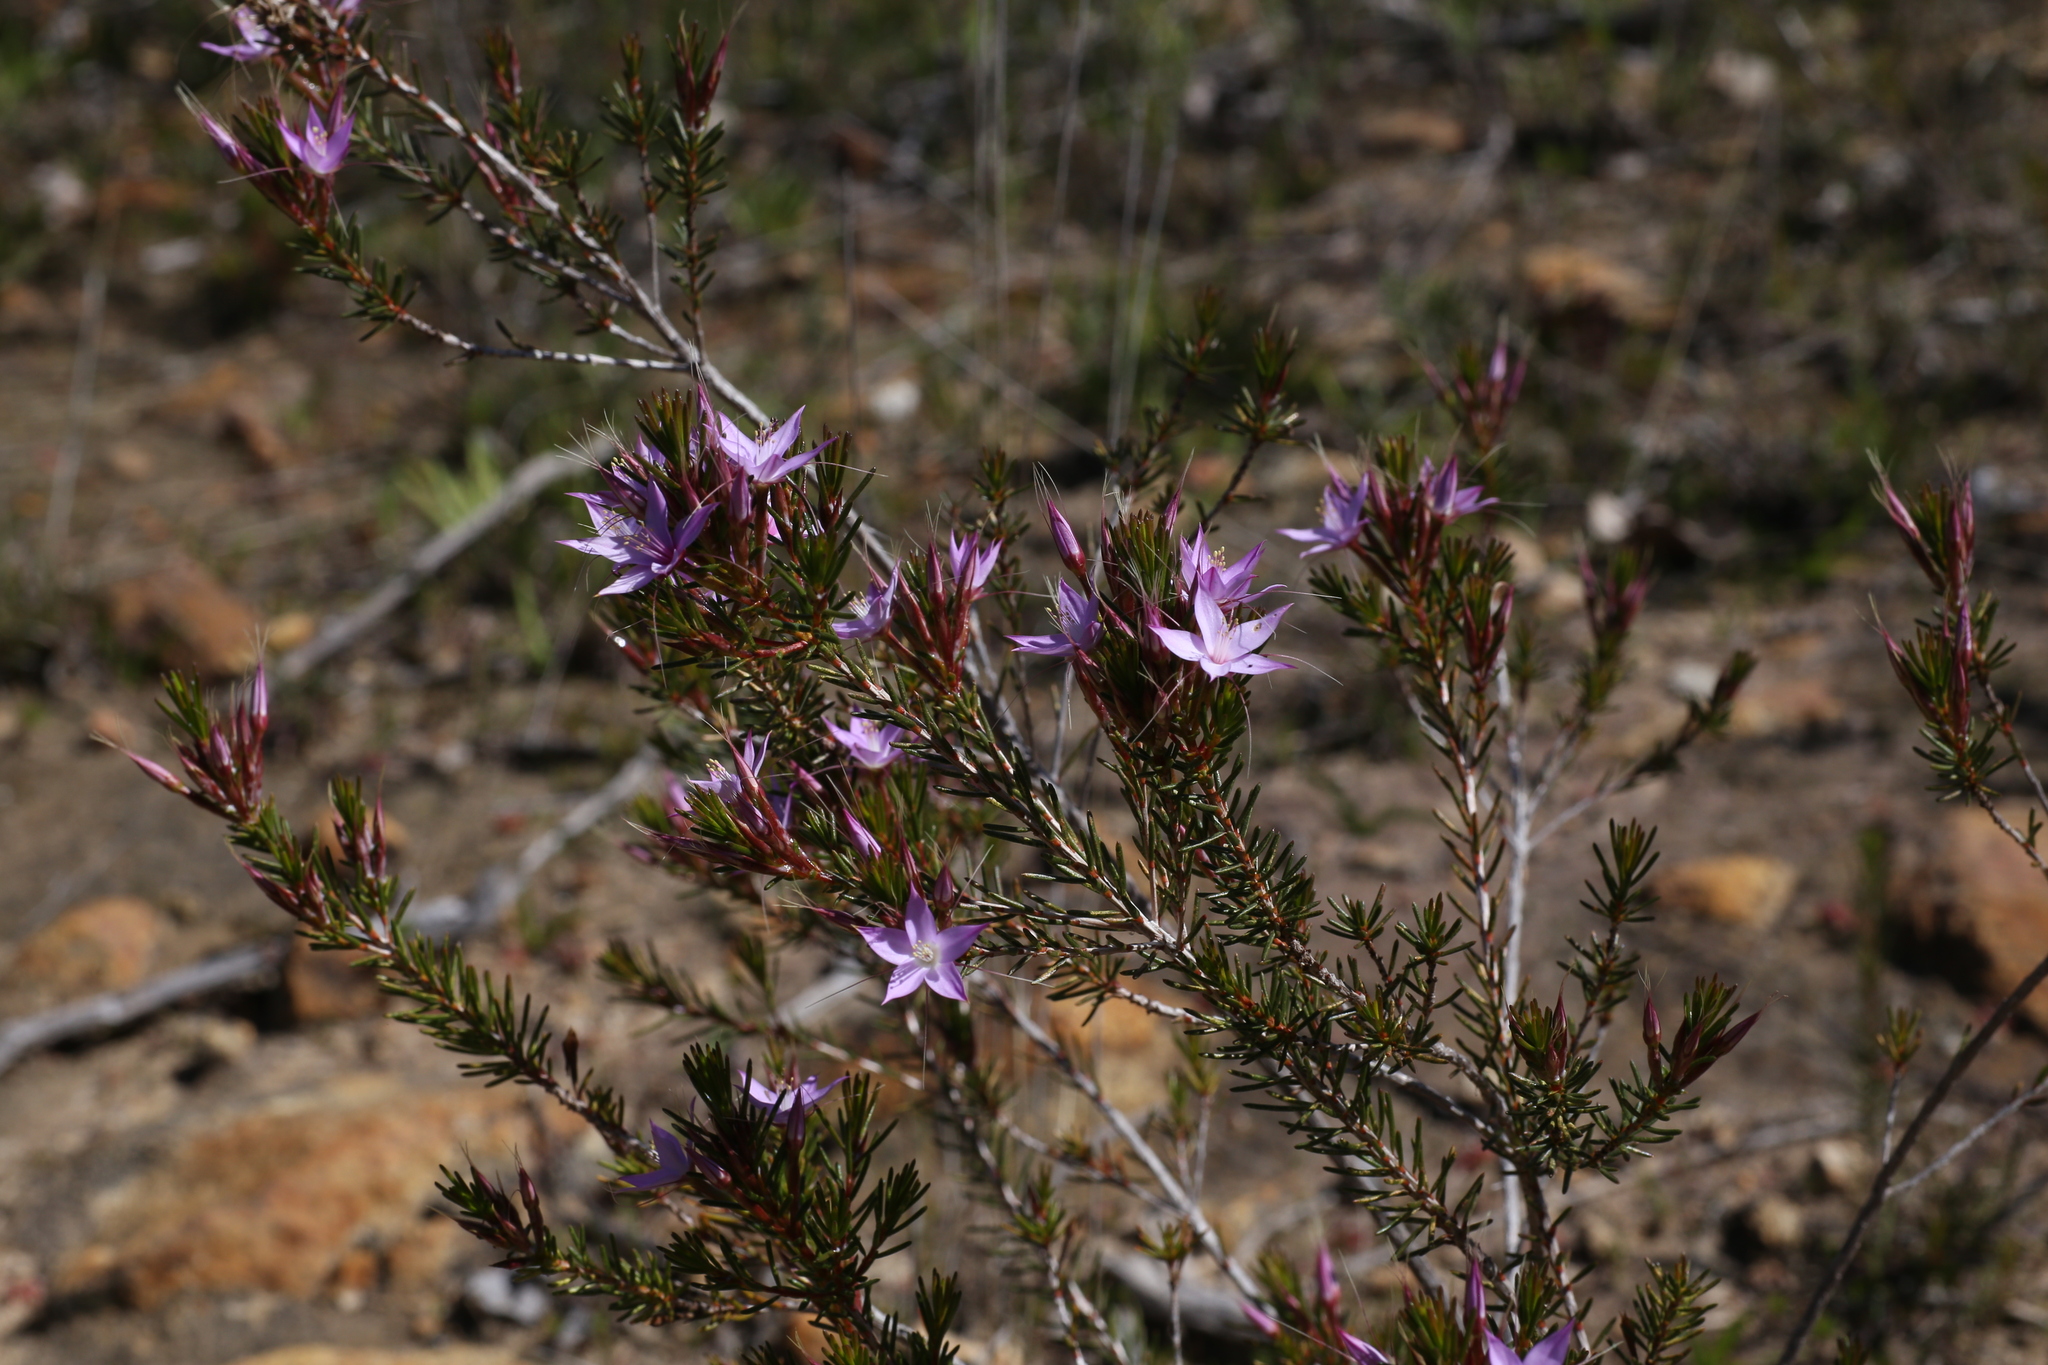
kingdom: Plantae
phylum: Tracheophyta
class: Magnoliopsida
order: Myrtales
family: Myrtaceae
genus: Calytrix
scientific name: Calytrix glutinosa
